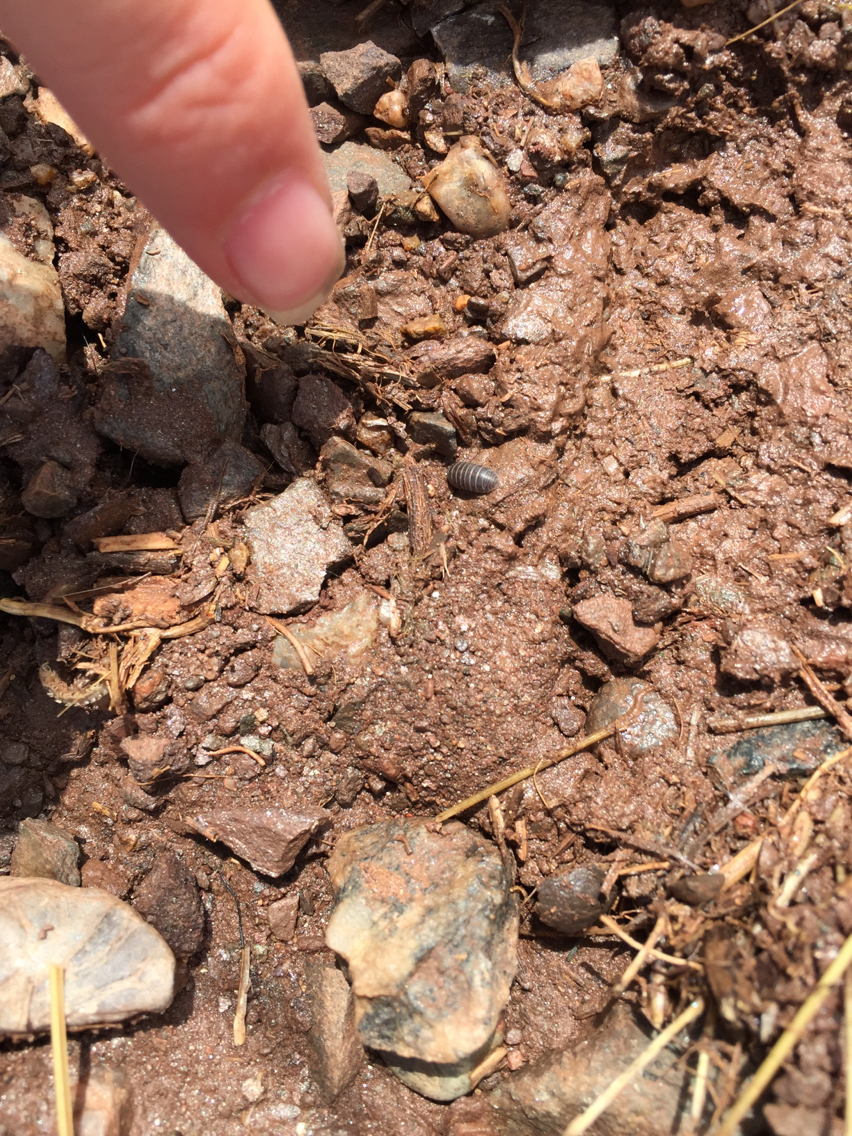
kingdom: Animalia
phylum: Arthropoda
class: Malacostraca
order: Isopoda
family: Armadillidiidae
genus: Armadillidium
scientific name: Armadillidium vulgare
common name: Common pill woodlouse
